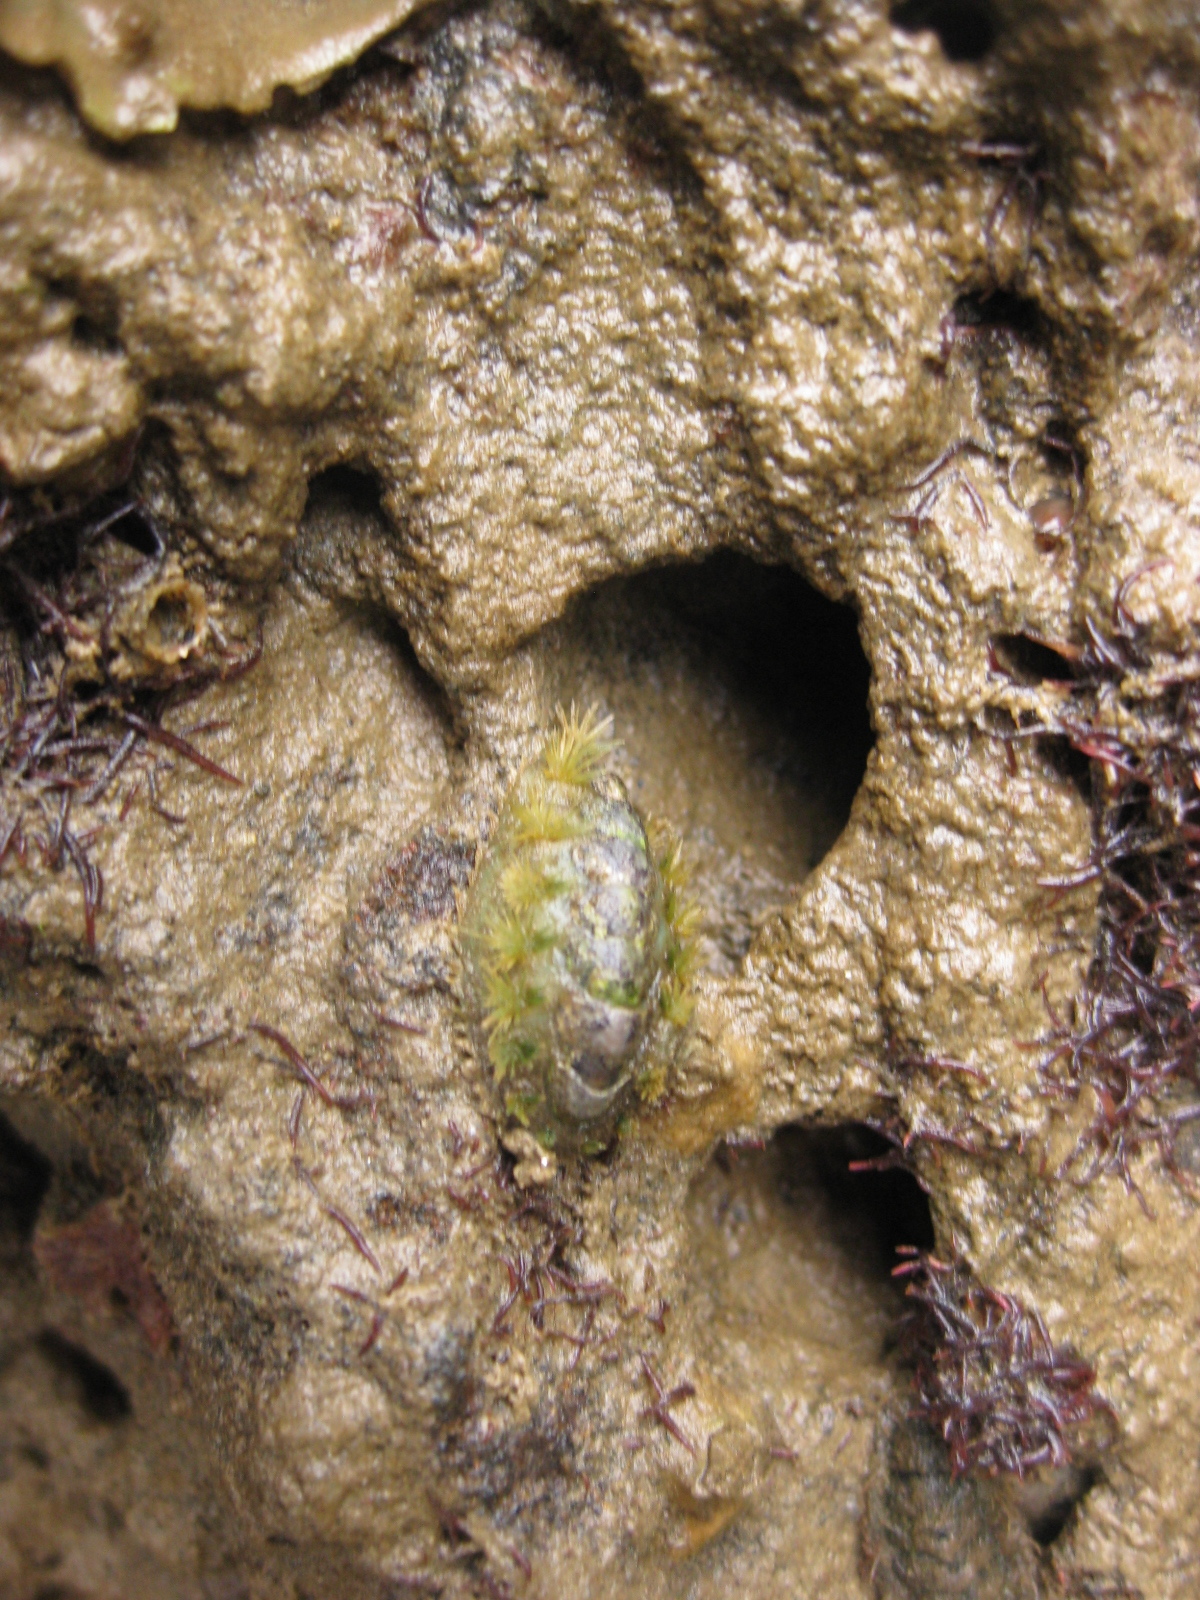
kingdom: Animalia
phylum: Mollusca
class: Polyplacophora
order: Chitonida
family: Acanthochitonidae
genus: Acanthochitona
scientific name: Acanthochitona zelandica
